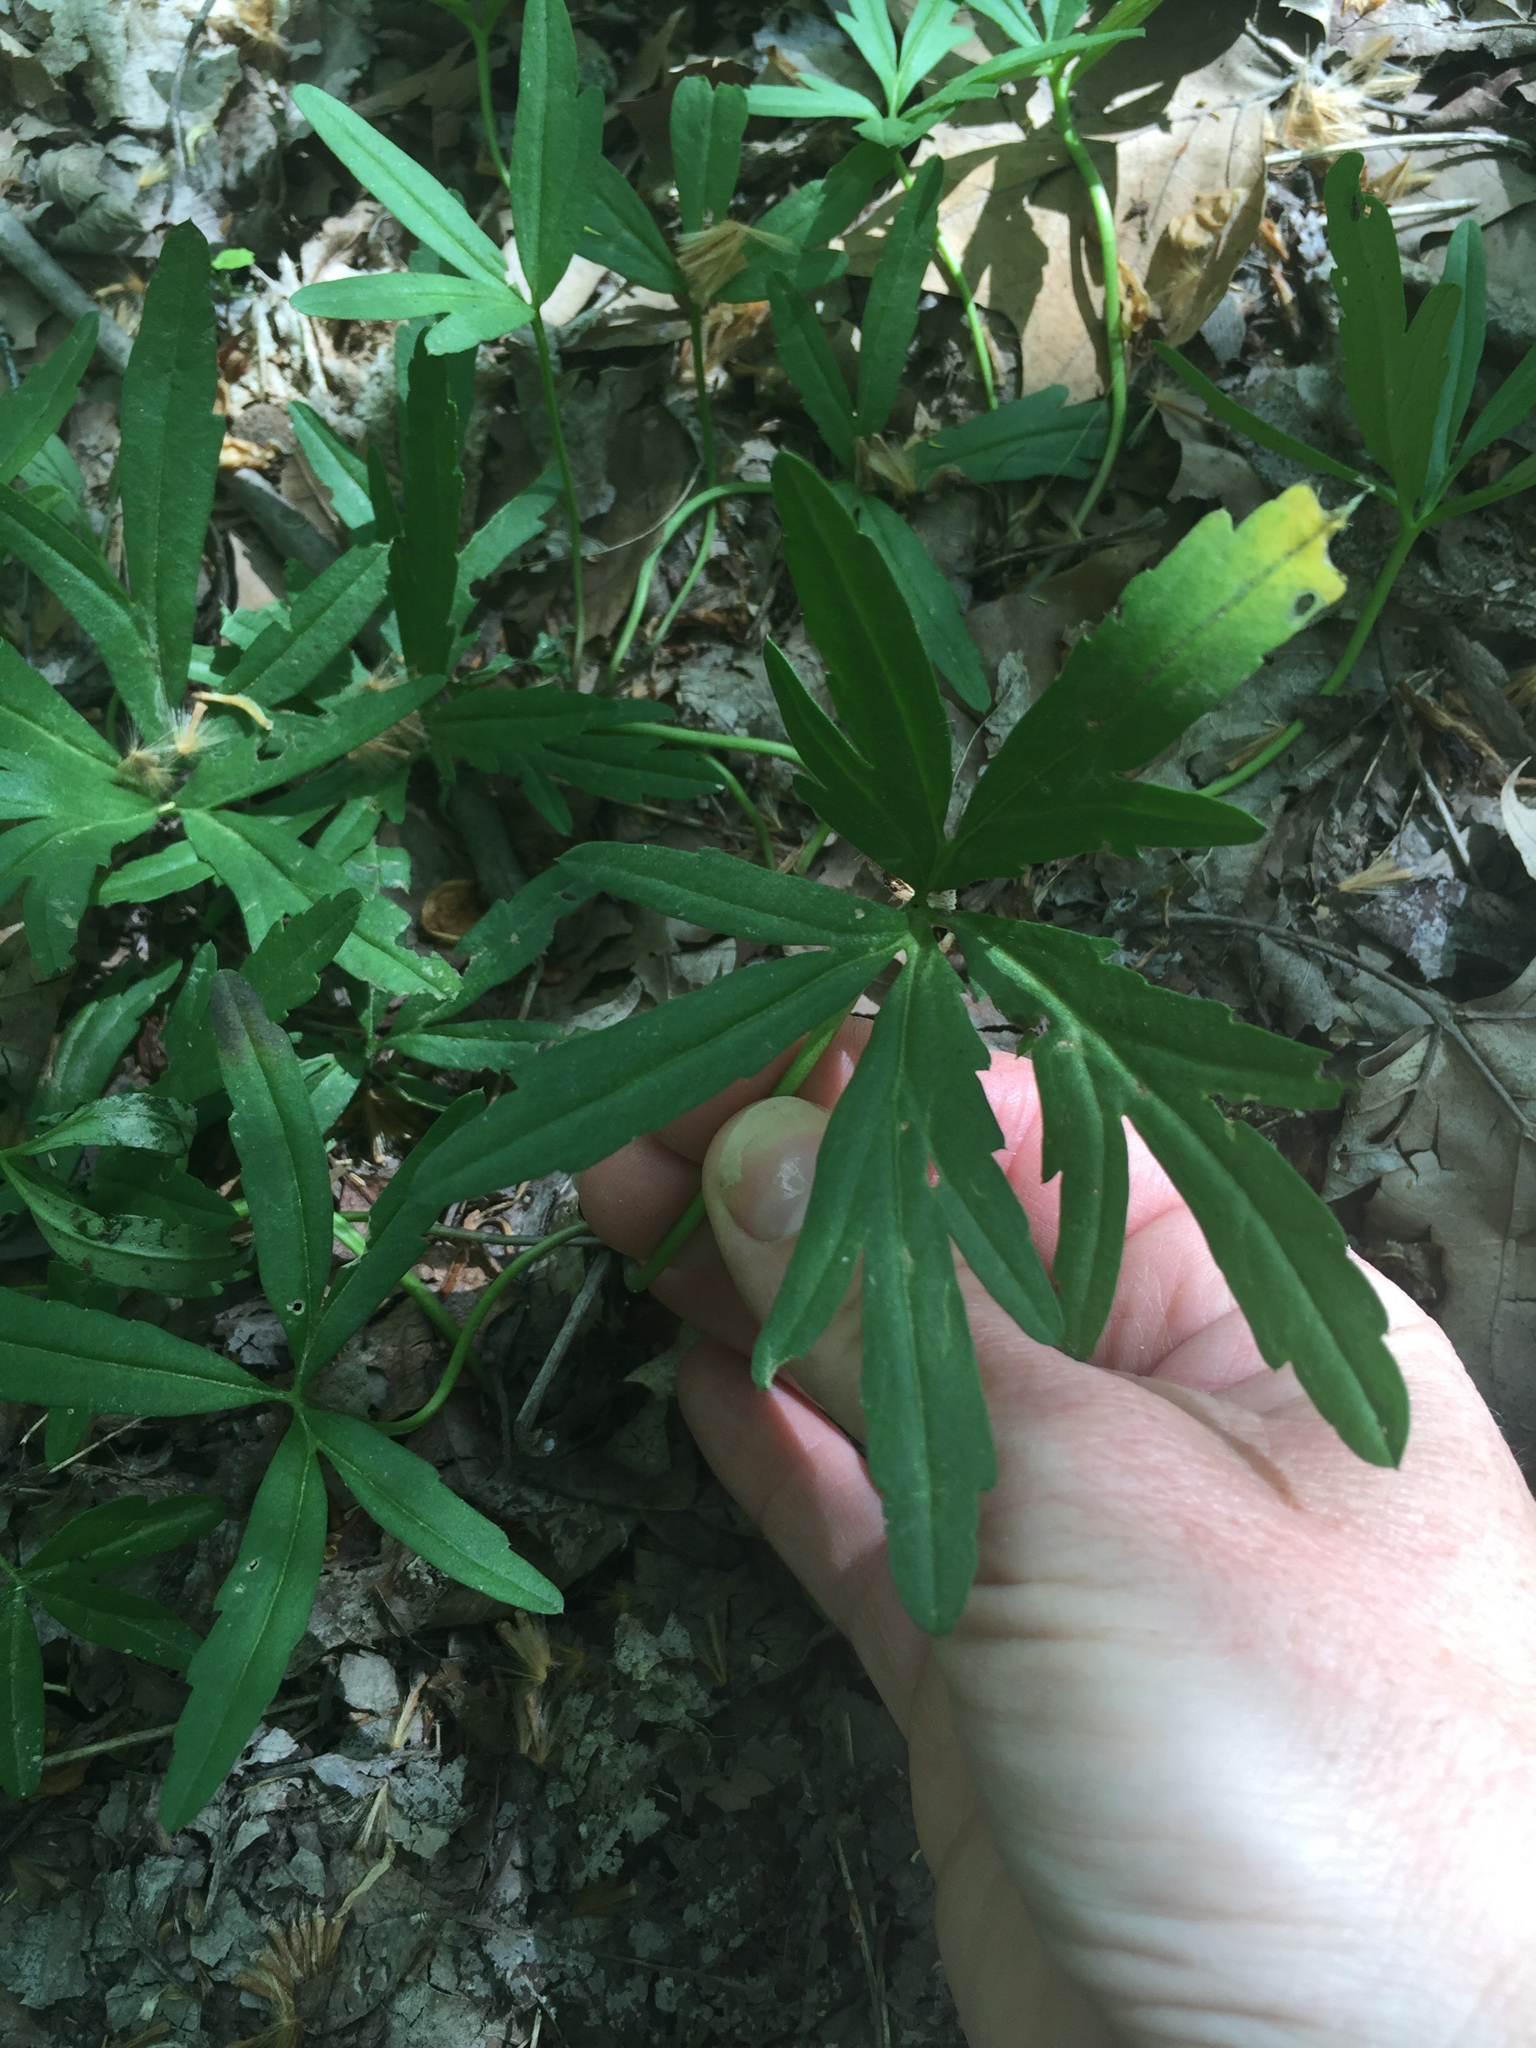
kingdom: Plantae
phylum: Tracheophyta
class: Magnoliopsida
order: Brassicales
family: Brassicaceae
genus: Cardamine
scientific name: Cardamine concatenata
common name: Cut-leaf toothcup
